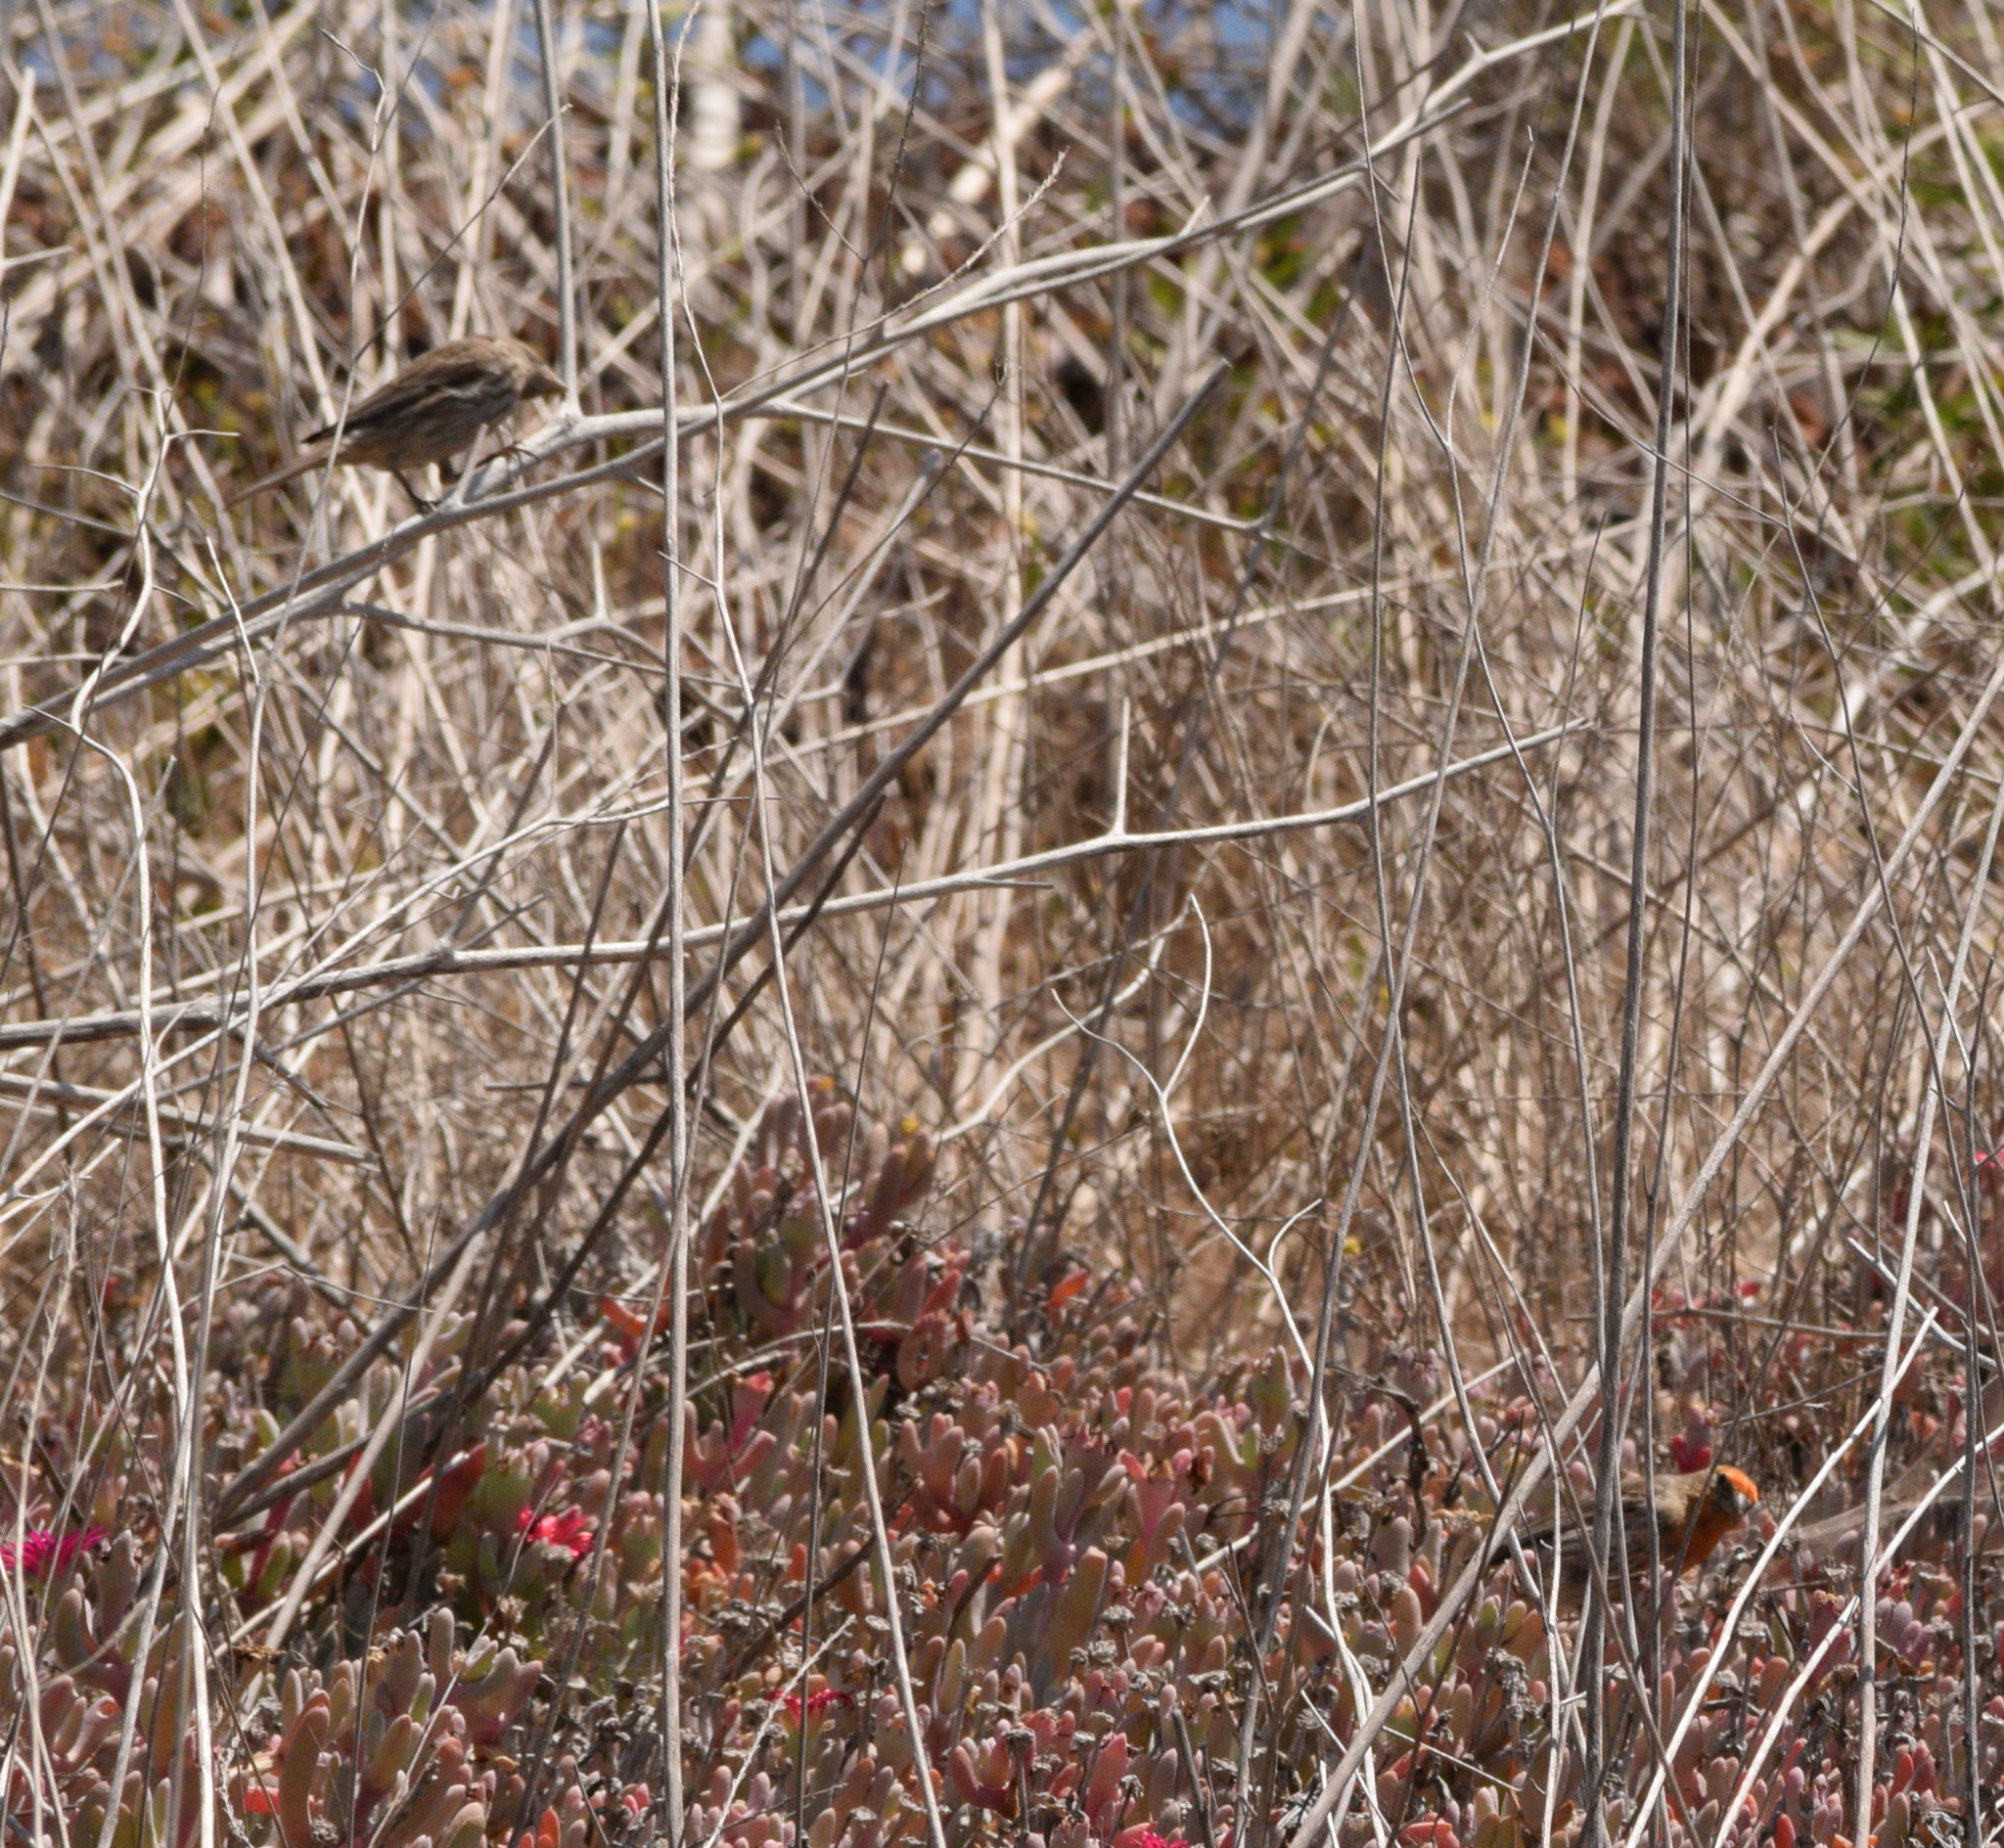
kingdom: Animalia
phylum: Chordata
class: Aves
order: Passeriformes
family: Fringillidae
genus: Haemorhous
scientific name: Haemorhous mexicanus
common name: House finch
